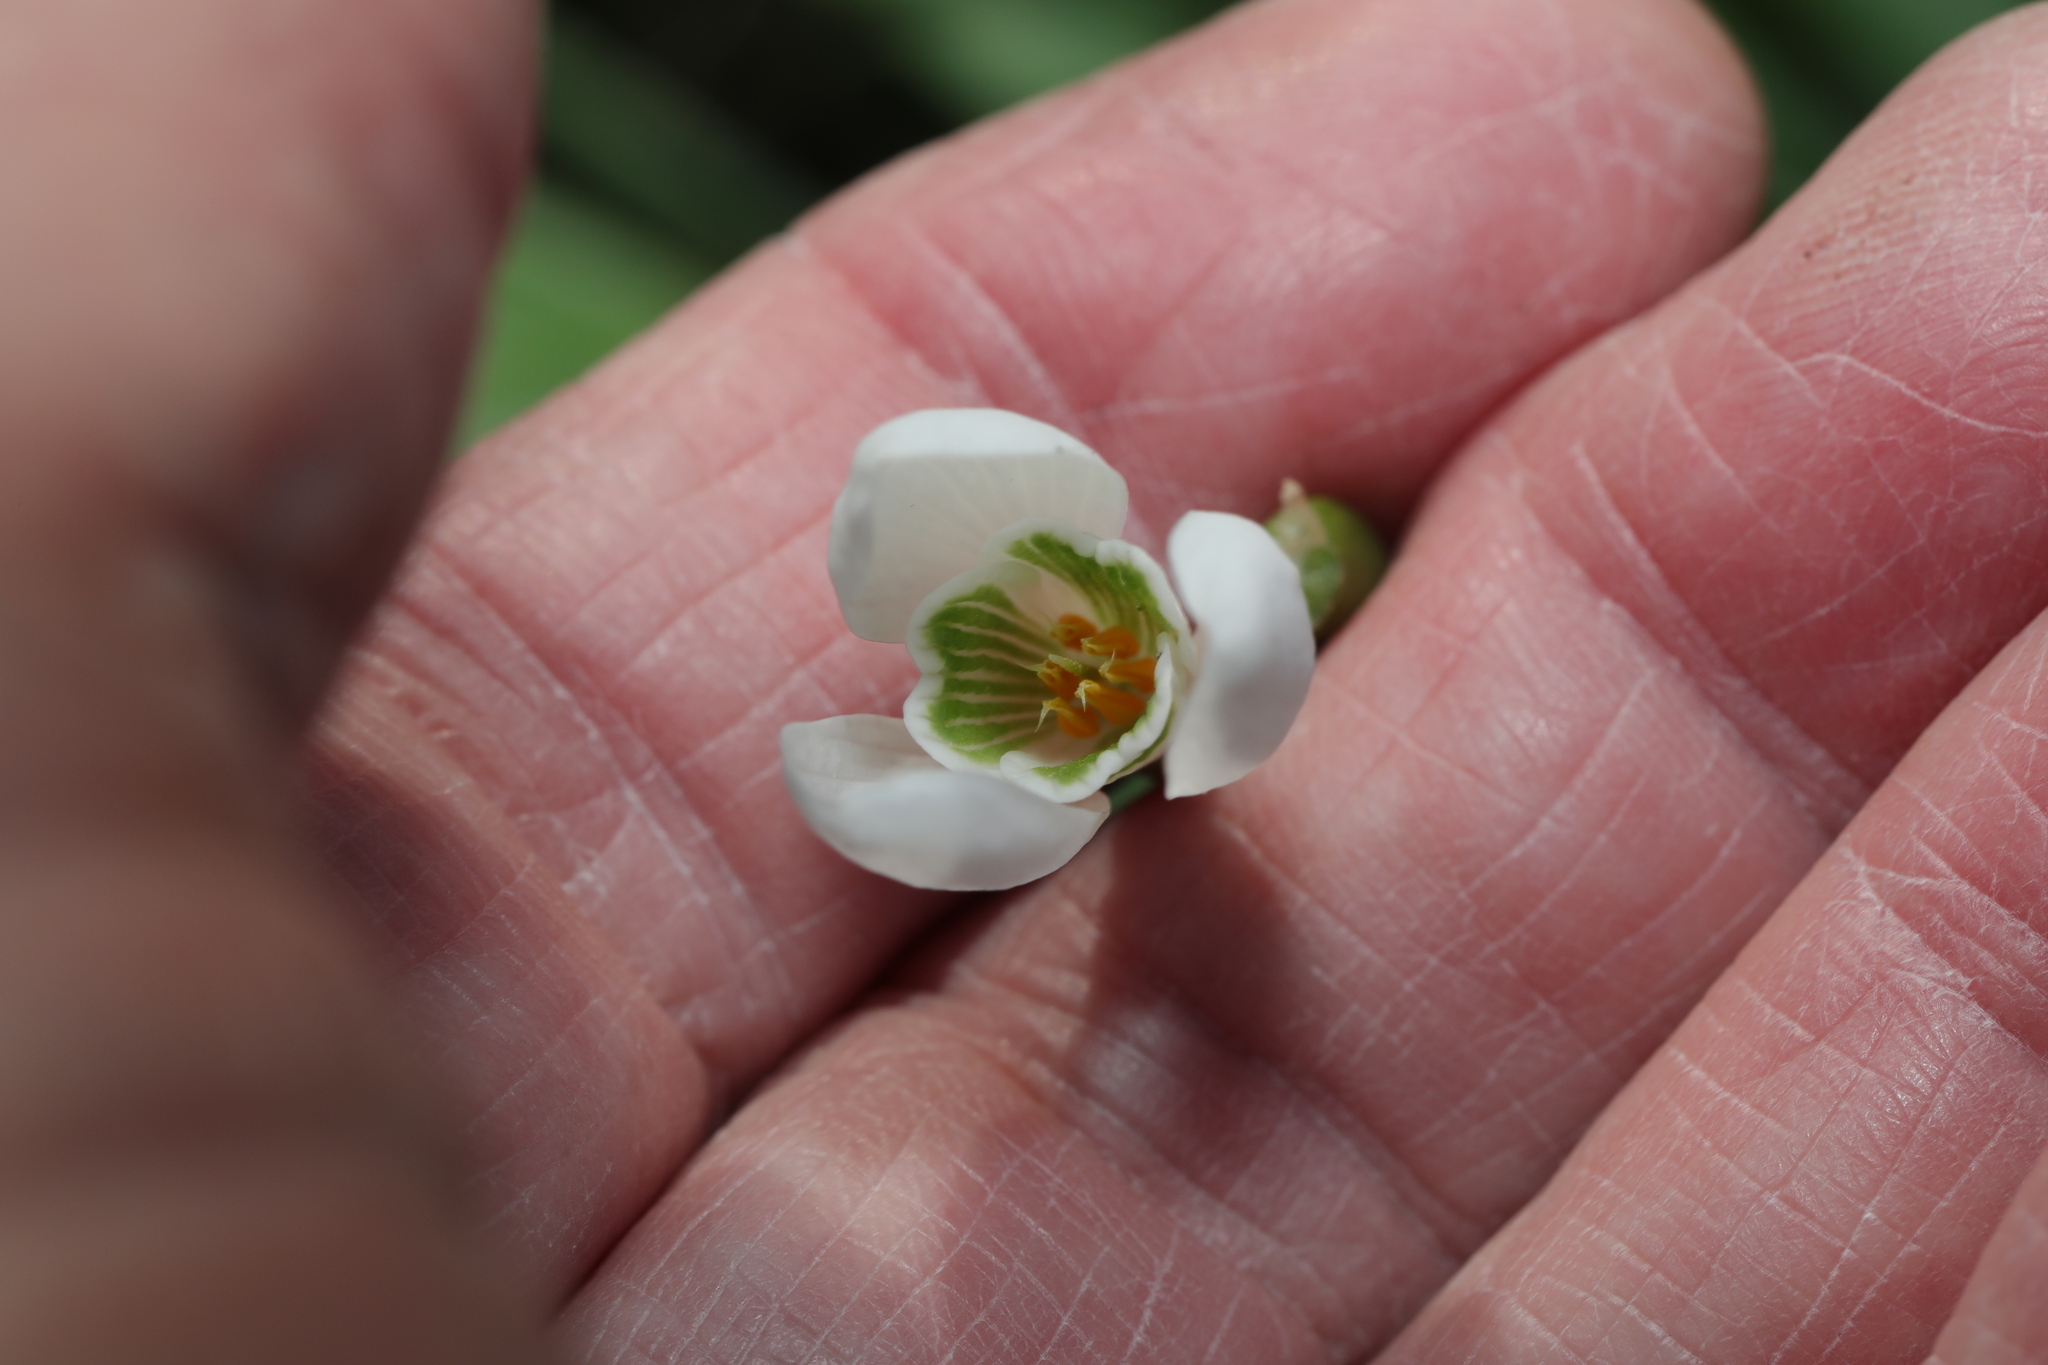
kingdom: Plantae
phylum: Tracheophyta
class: Liliopsida
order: Asparagales
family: Amaryllidaceae
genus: Galanthus
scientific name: Galanthus nivalis
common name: Snowdrop
